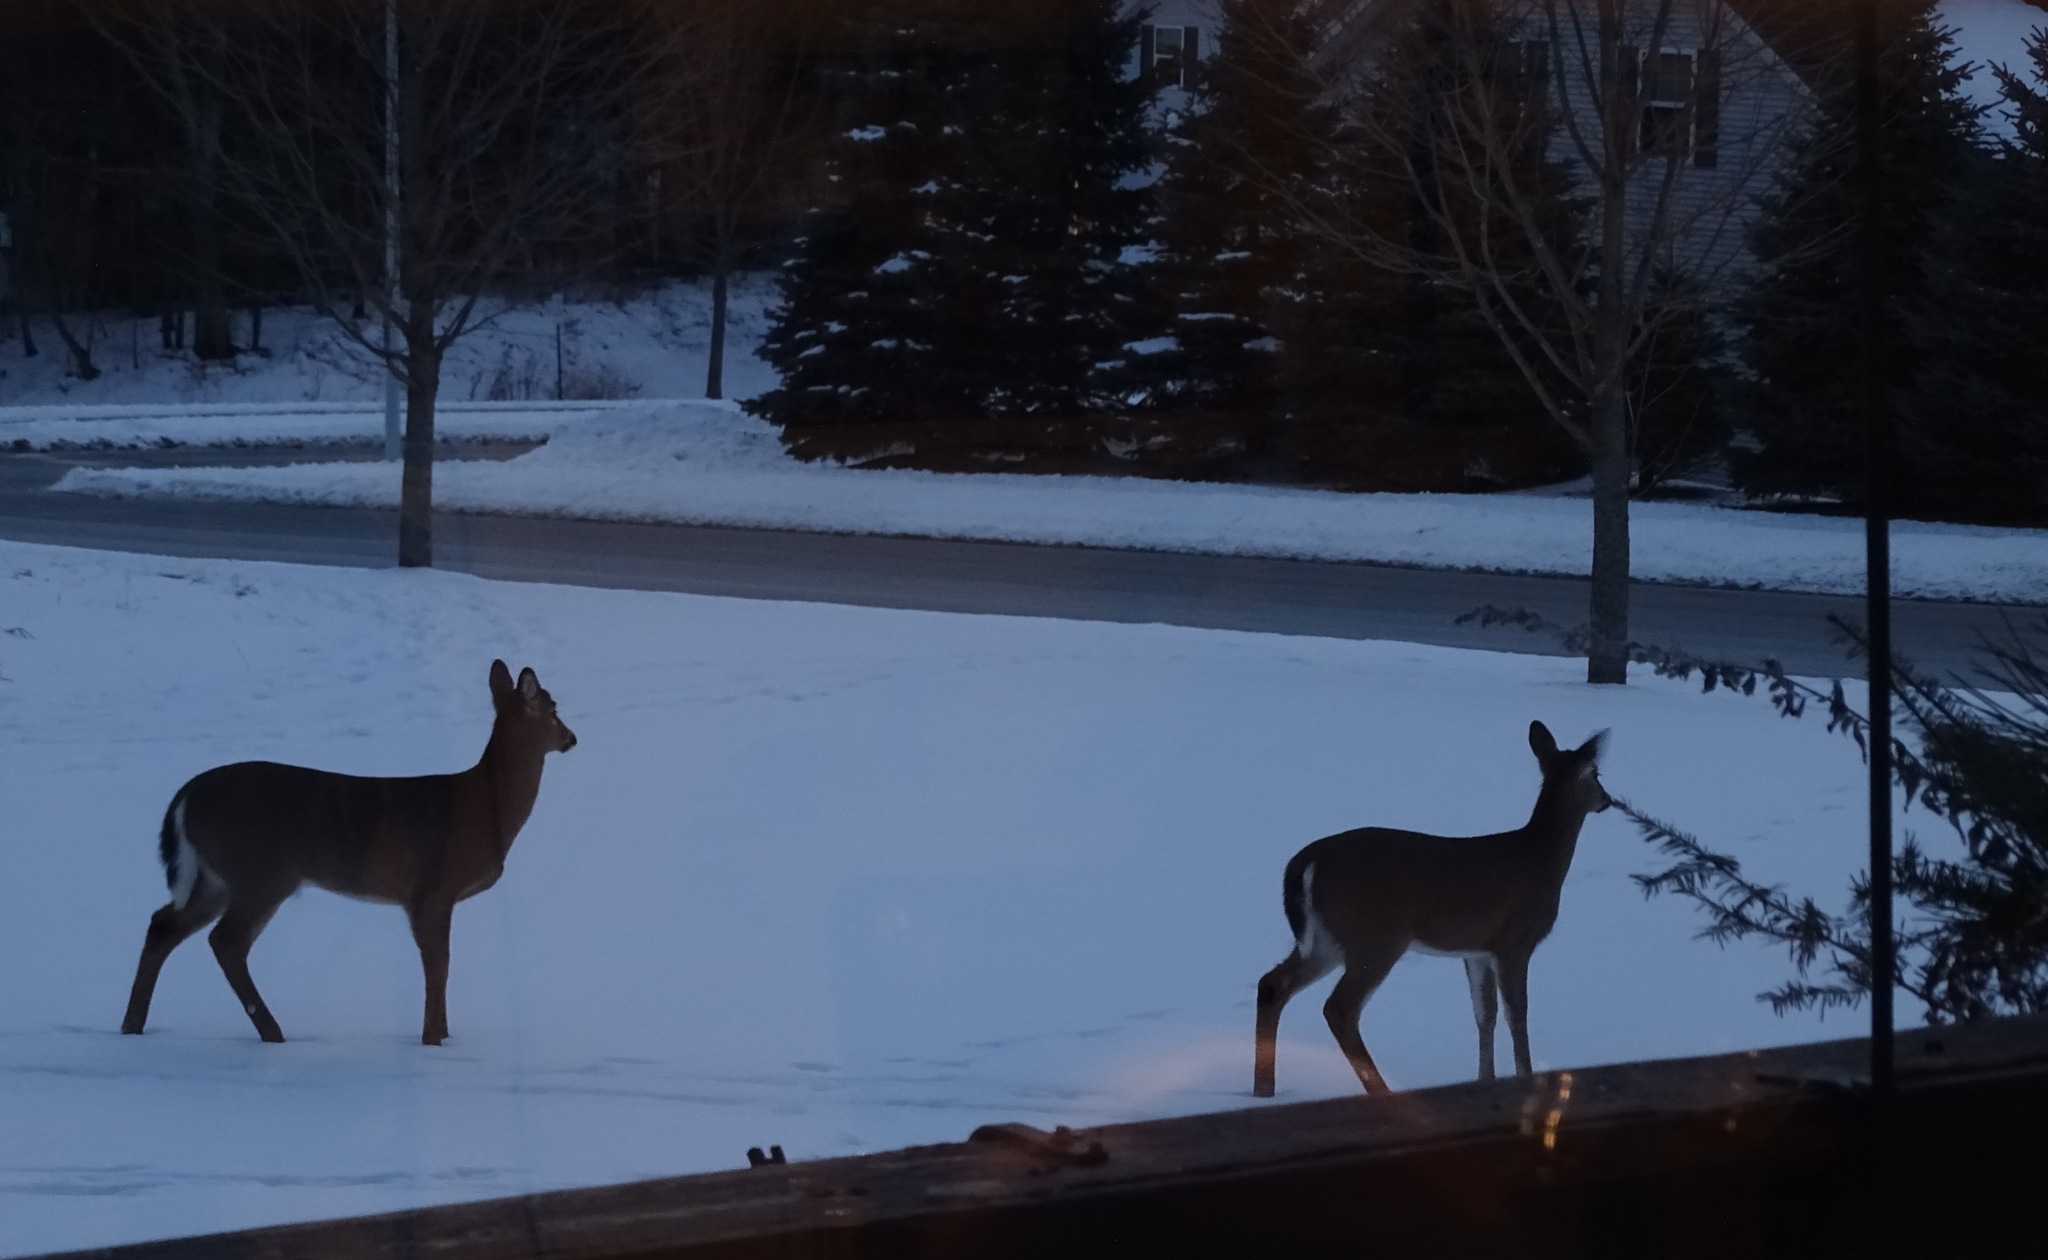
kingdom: Animalia
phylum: Chordata
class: Mammalia
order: Artiodactyla
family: Cervidae
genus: Odocoileus
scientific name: Odocoileus virginianus
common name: White-tailed deer
